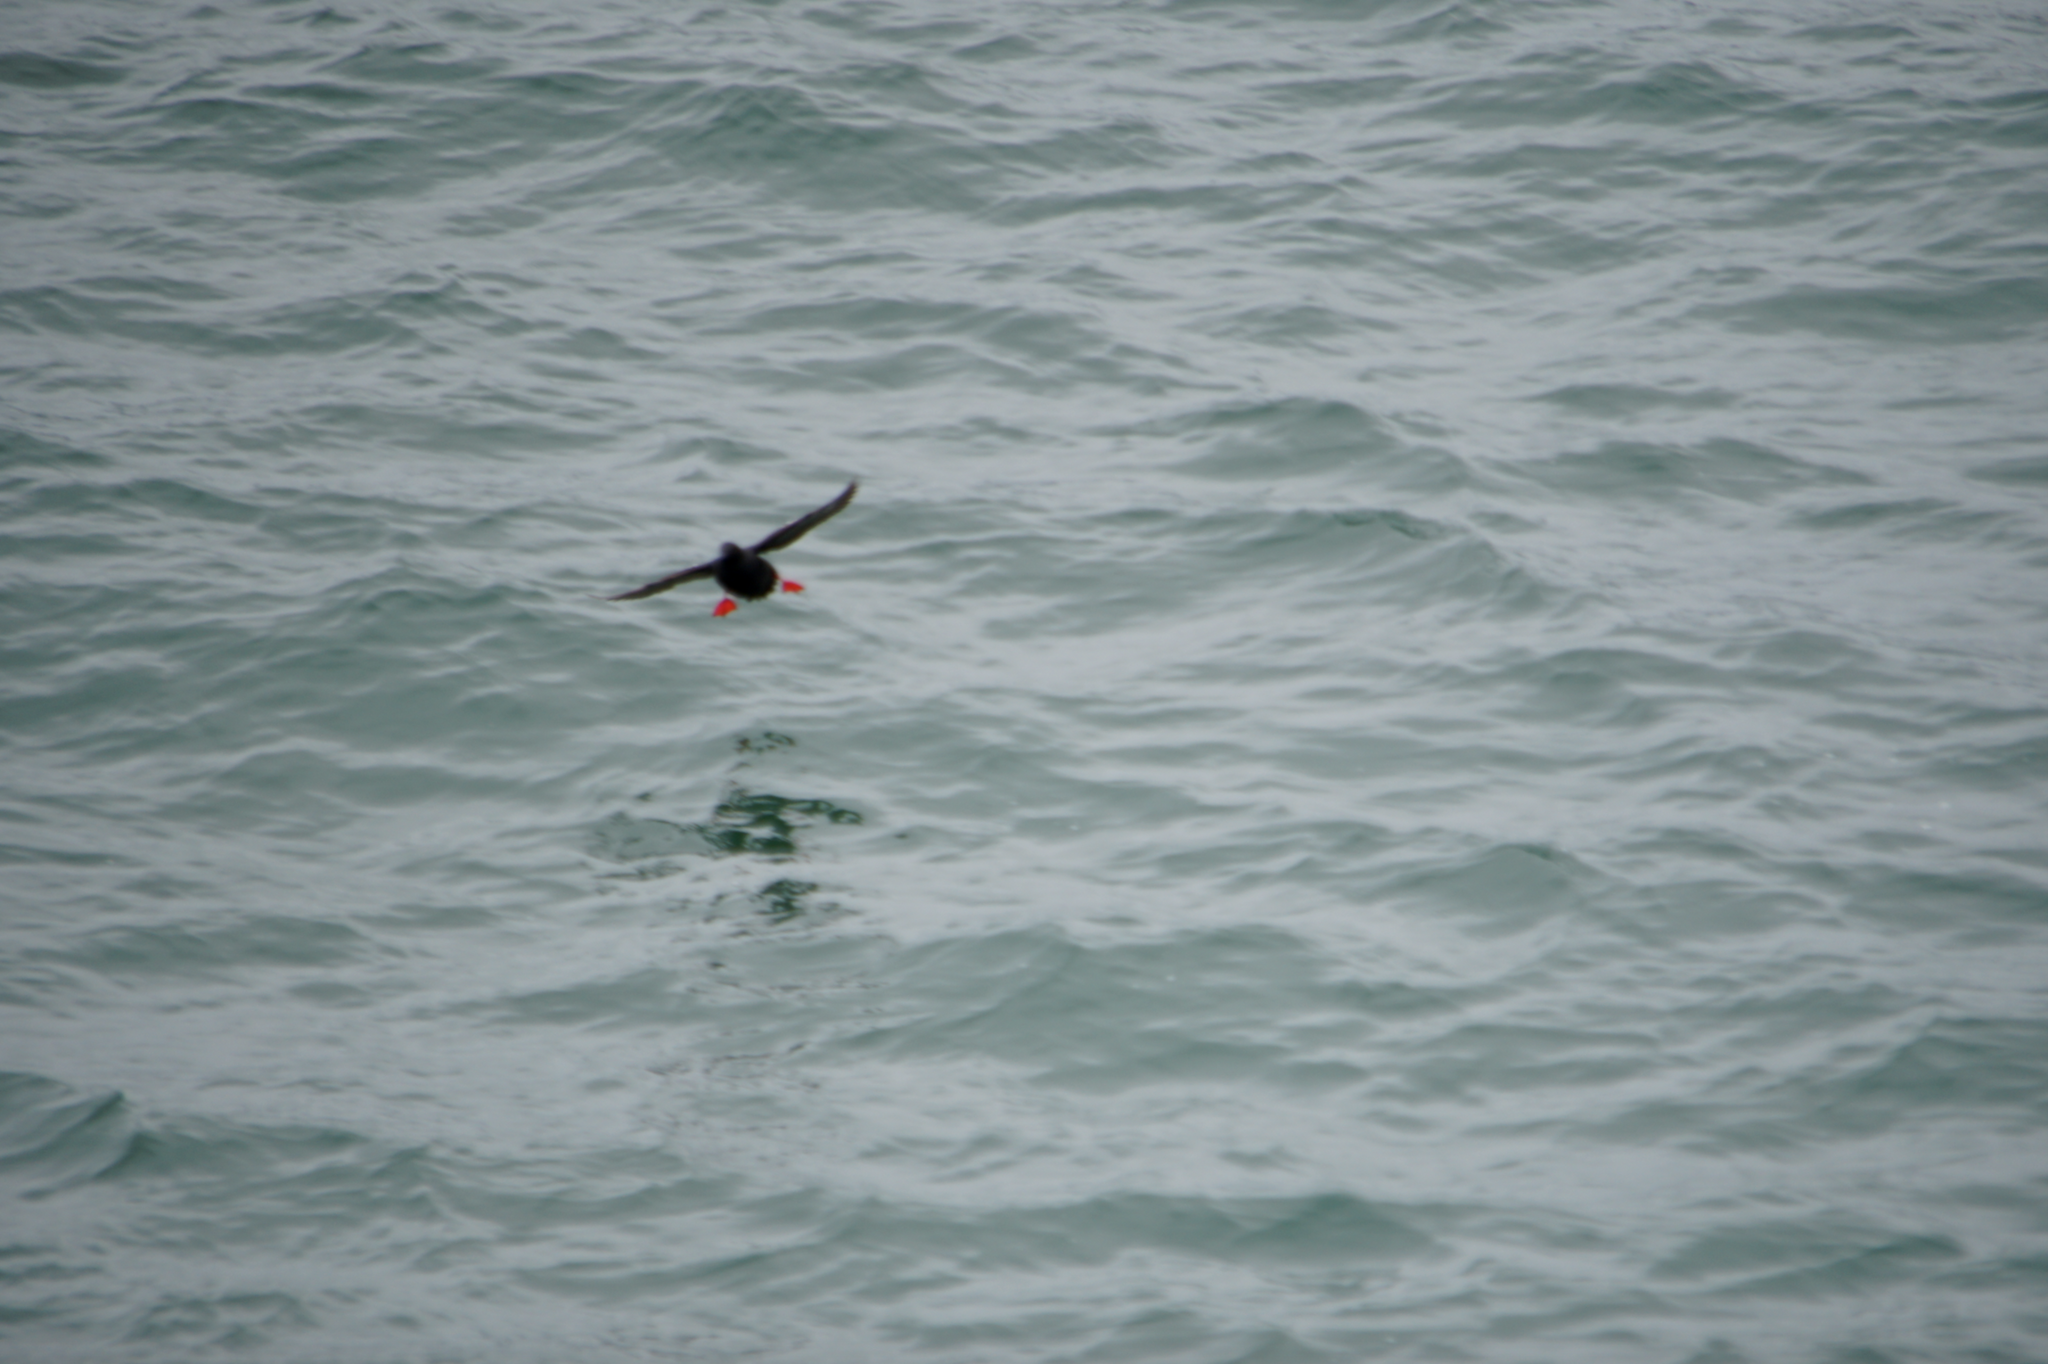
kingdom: Animalia
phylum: Chordata
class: Aves
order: Charadriiformes
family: Alcidae
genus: Cepphus
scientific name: Cepphus columba
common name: Pigeon guillemot
